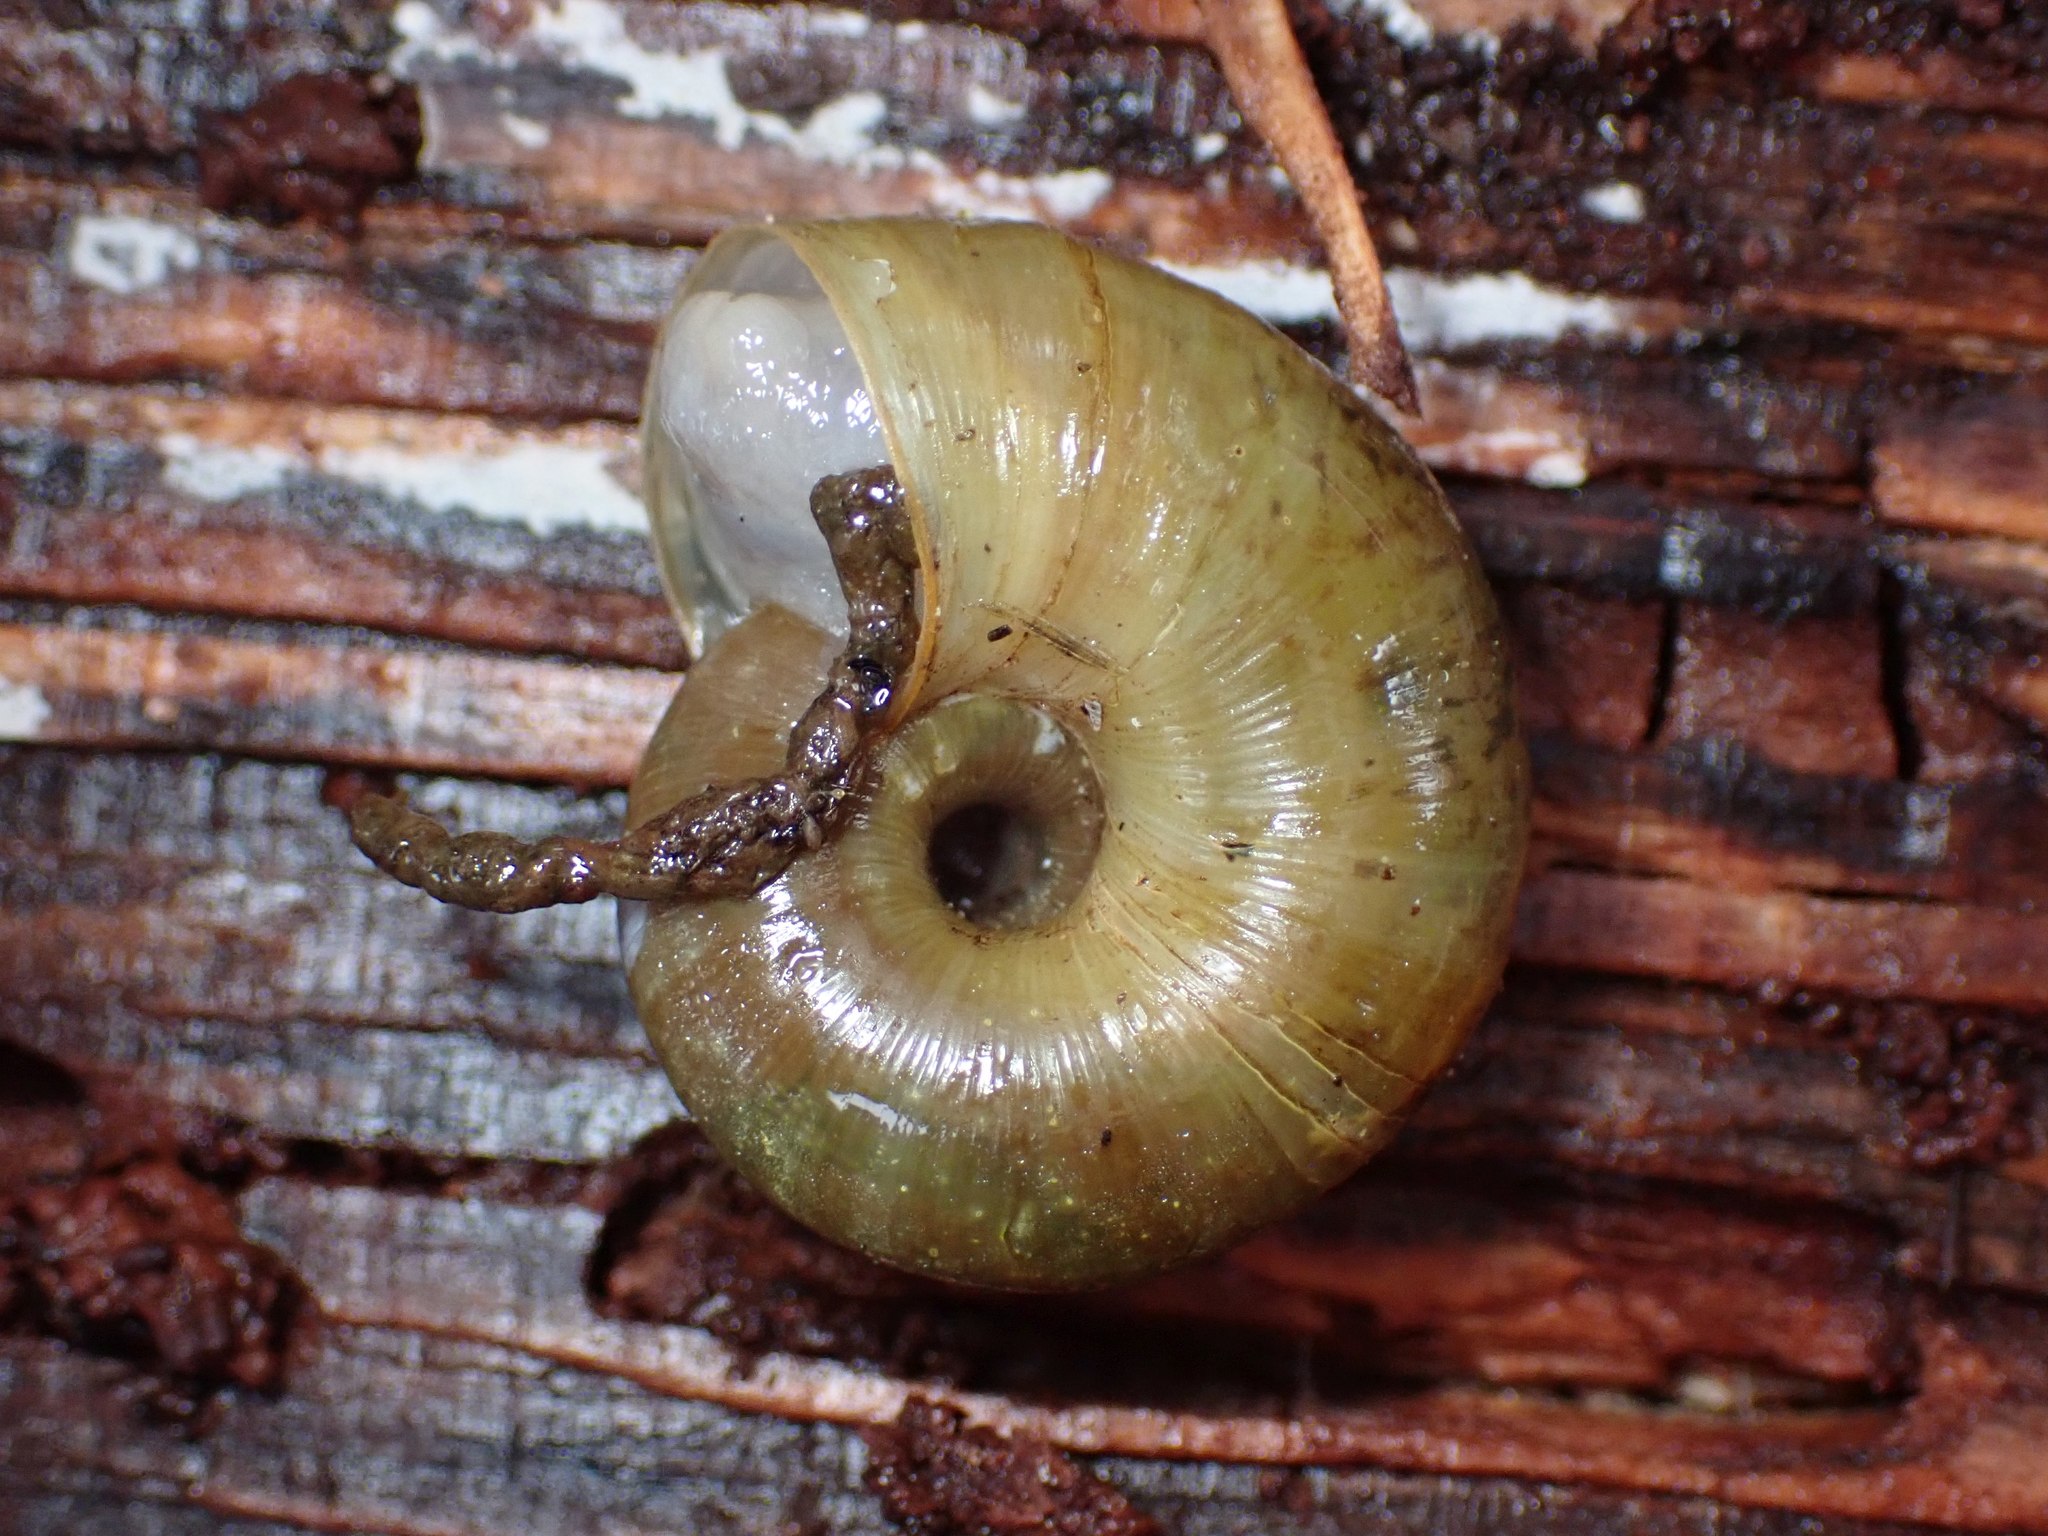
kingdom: Animalia
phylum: Mollusca
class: Gastropoda
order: Stylommatophora
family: Haplotrematidae
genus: Haplotrema
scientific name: Haplotrema vancouverense
